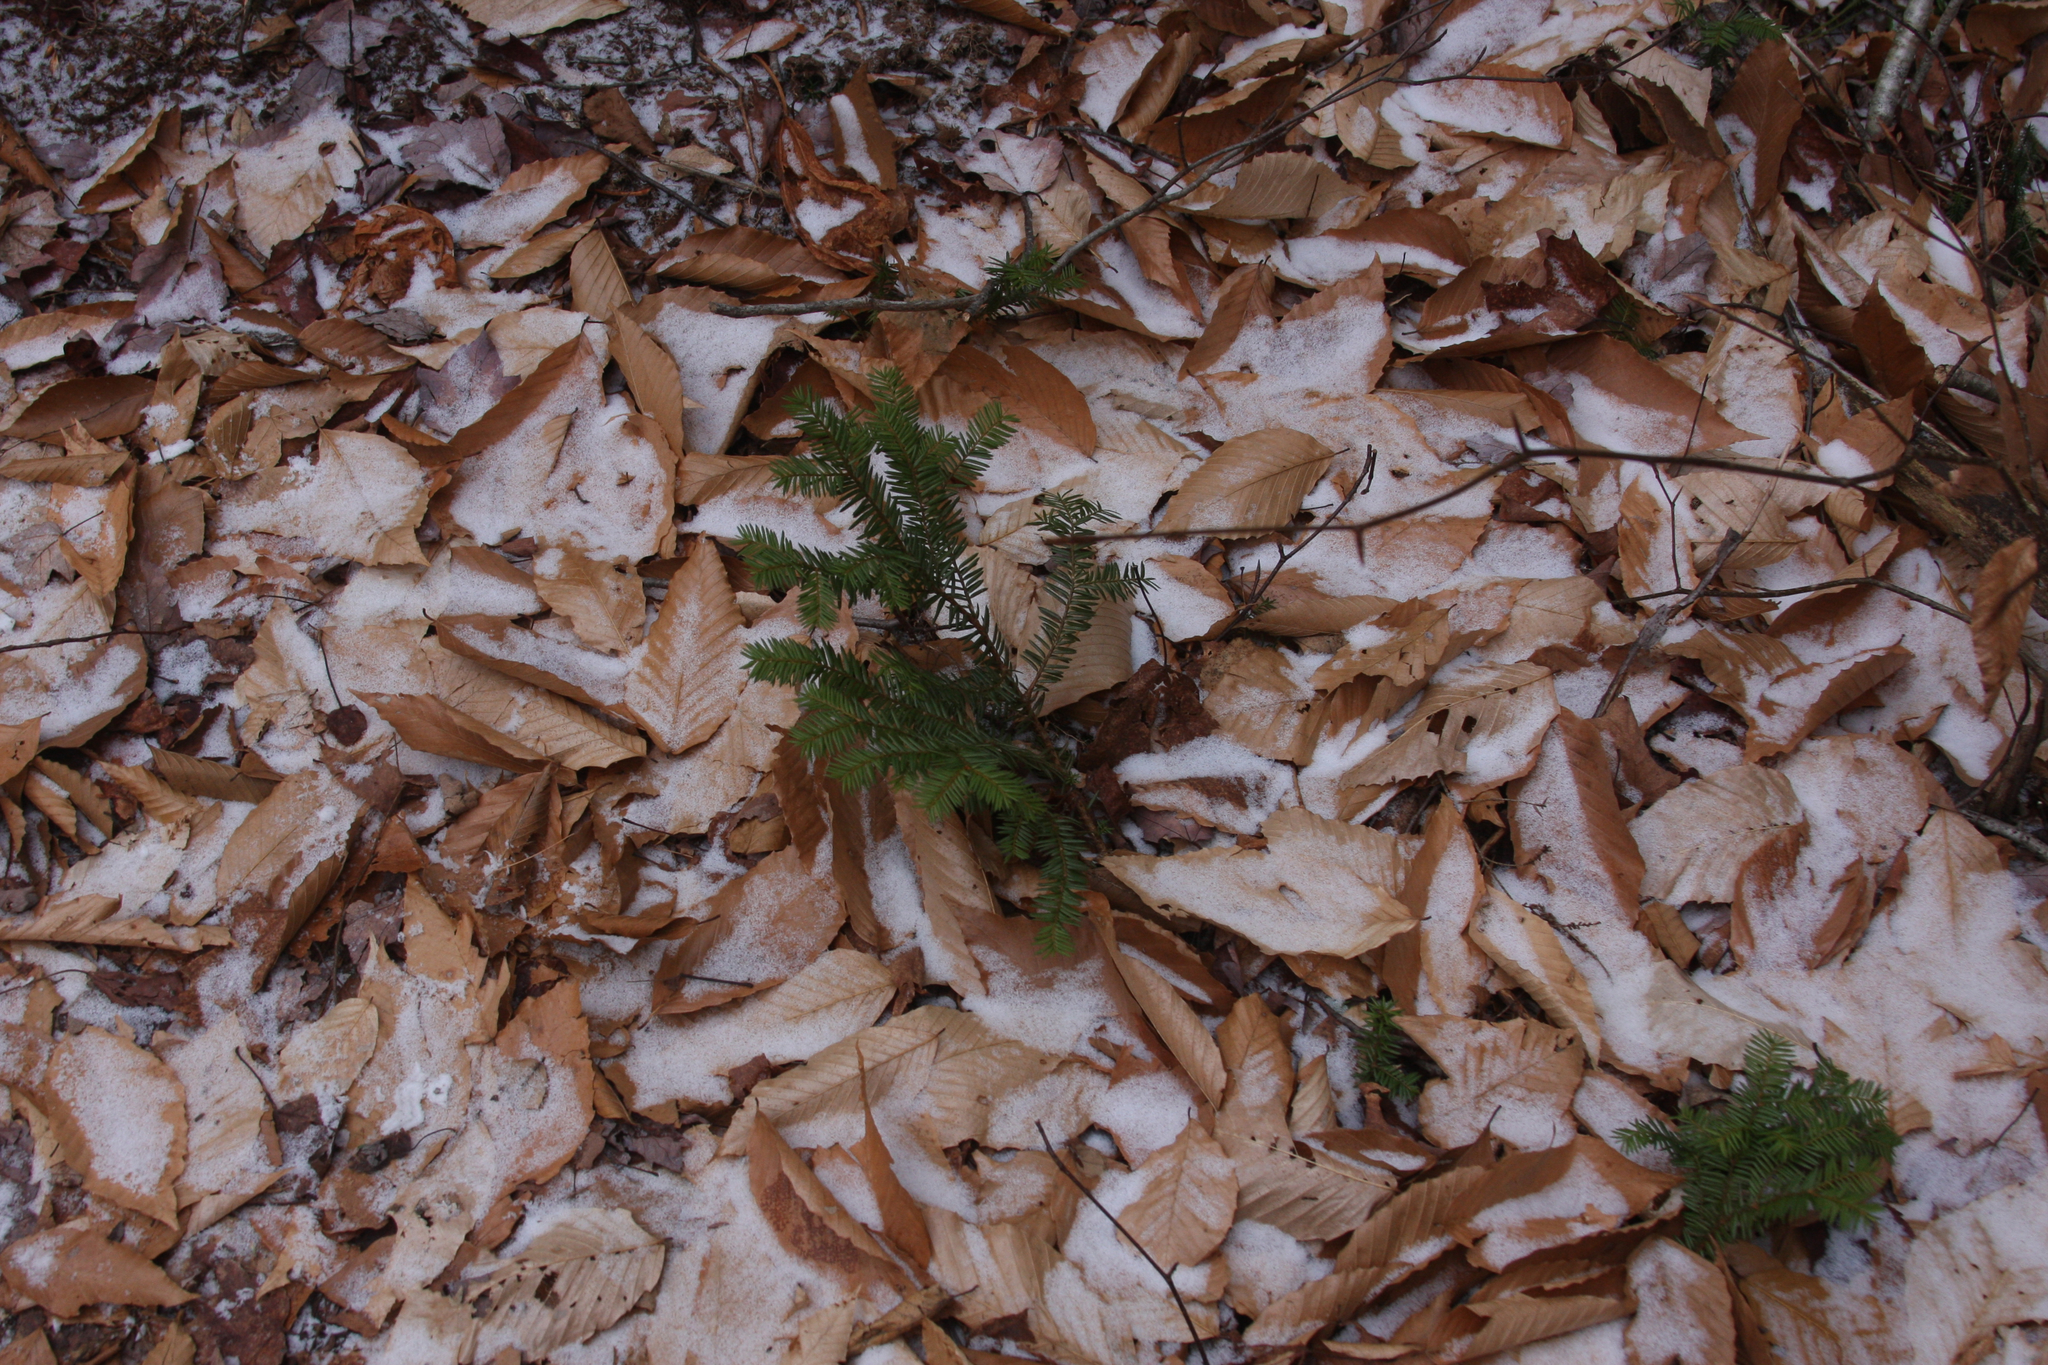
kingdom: Plantae
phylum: Tracheophyta
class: Pinopsida
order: Pinales
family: Taxaceae
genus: Taxus
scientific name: Taxus canadensis
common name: American yew
